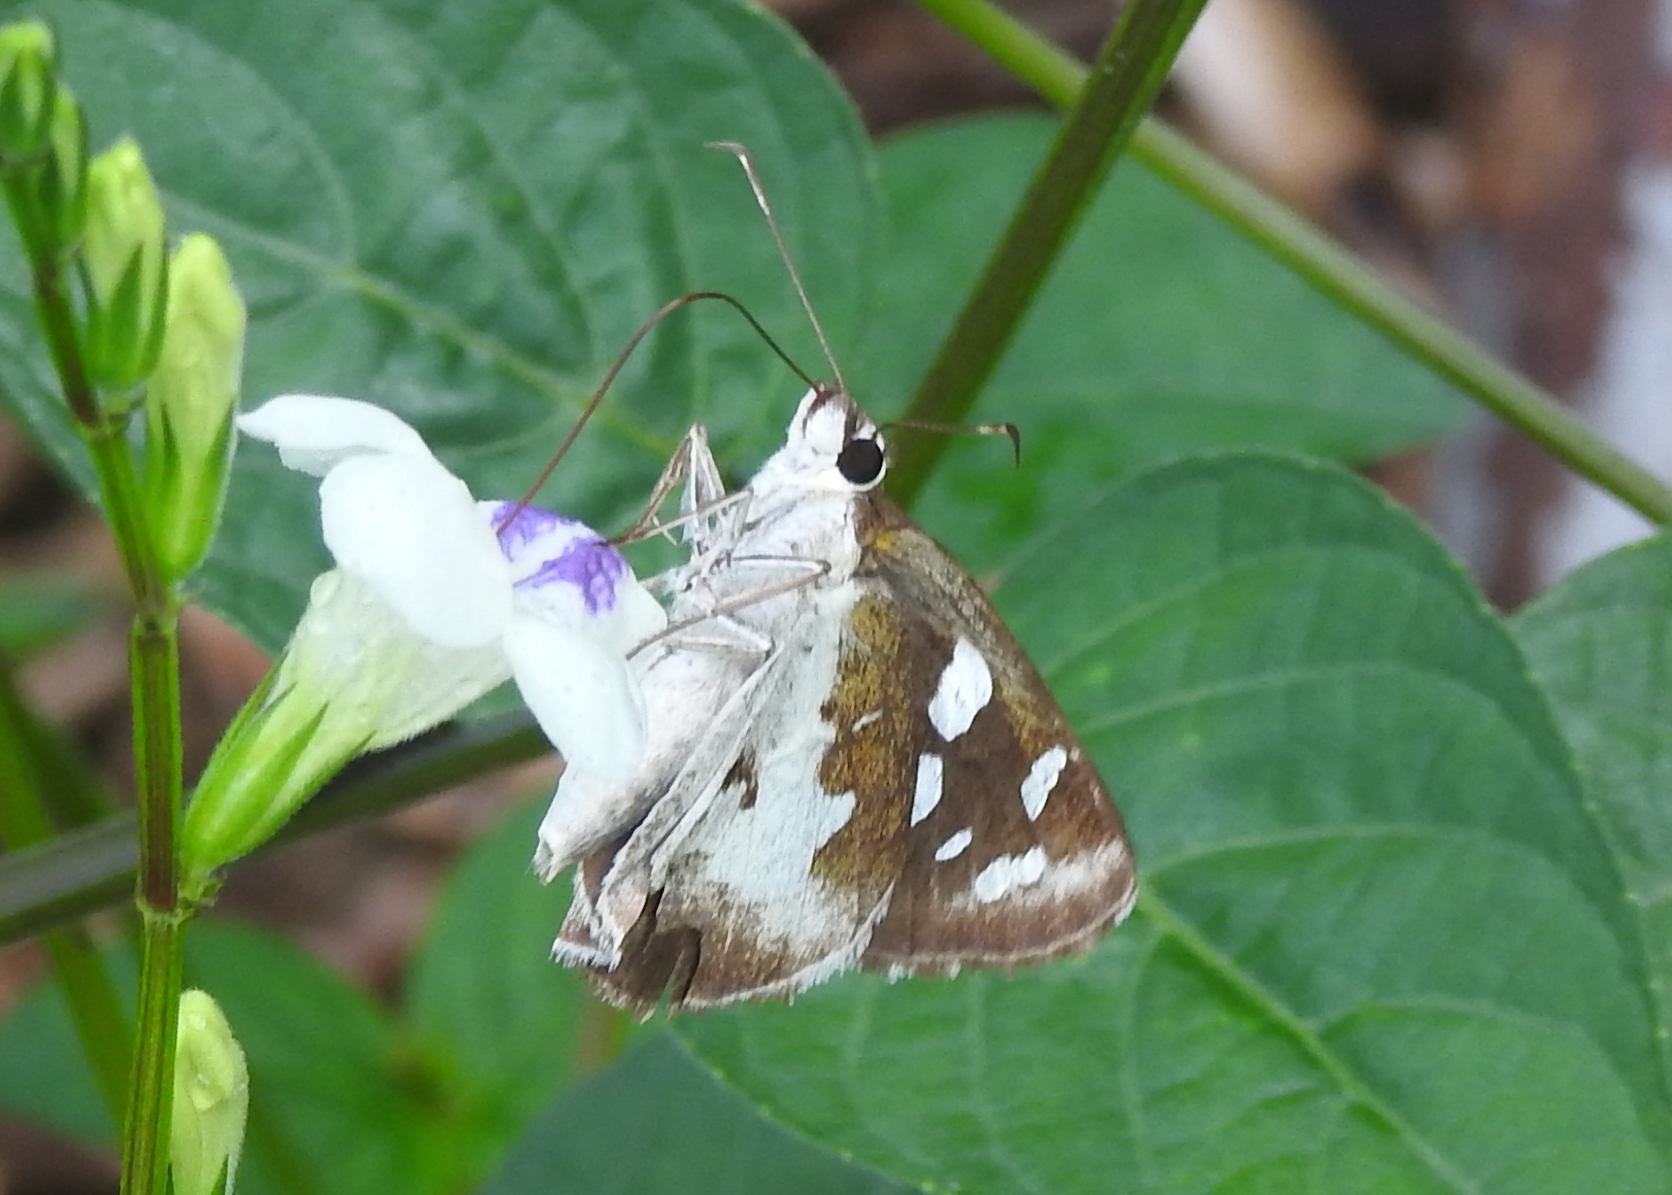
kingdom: Animalia
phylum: Arthropoda
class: Insecta
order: Lepidoptera
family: Hesperiidae
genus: Udaspes
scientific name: Udaspes folus
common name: Grass demon
